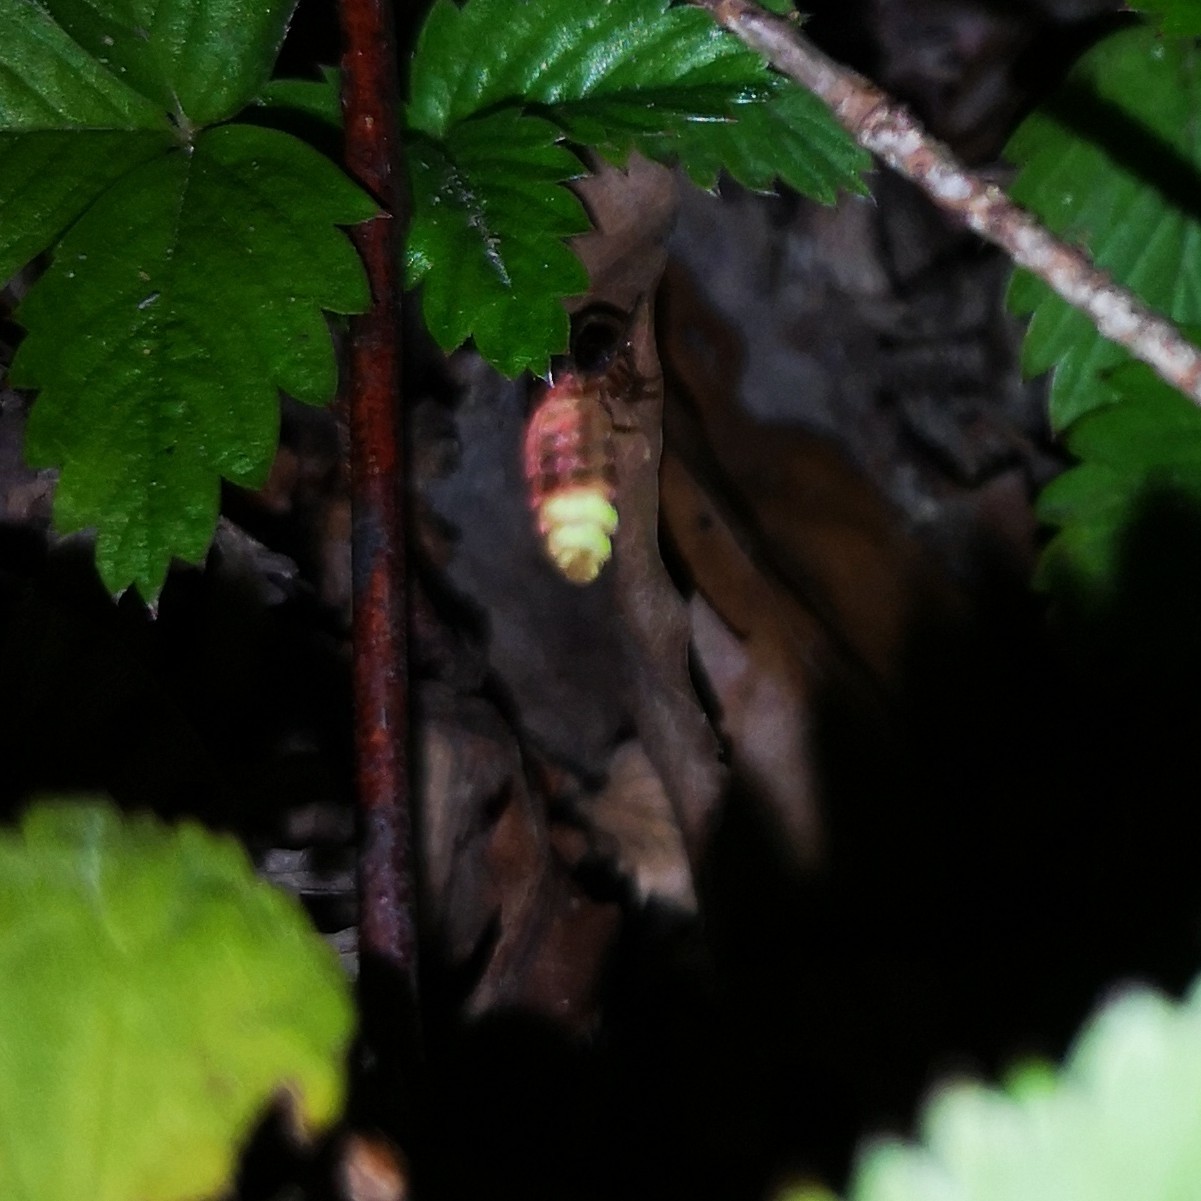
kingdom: Animalia
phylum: Arthropoda
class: Insecta
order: Coleoptera
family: Lampyridae
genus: Lampyris
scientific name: Lampyris noctiluca
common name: Glow-worm
